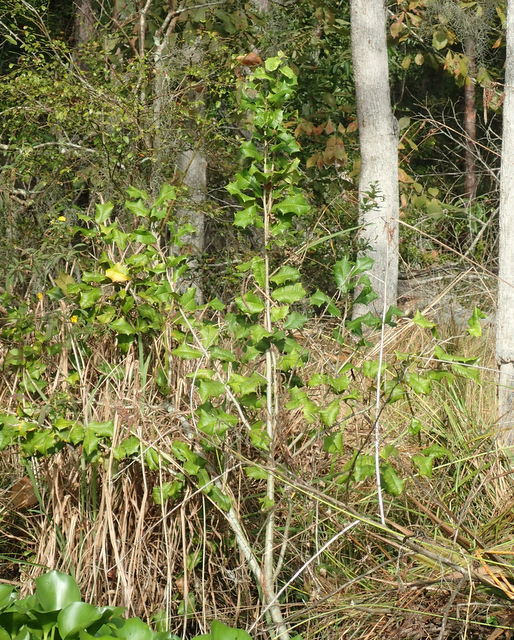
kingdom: Plantae
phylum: Tracheophyta
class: Magnoliopsida
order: Aquifoliales
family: Aquifoliaceae
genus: Ilex
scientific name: Ilex opaca
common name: American holly
